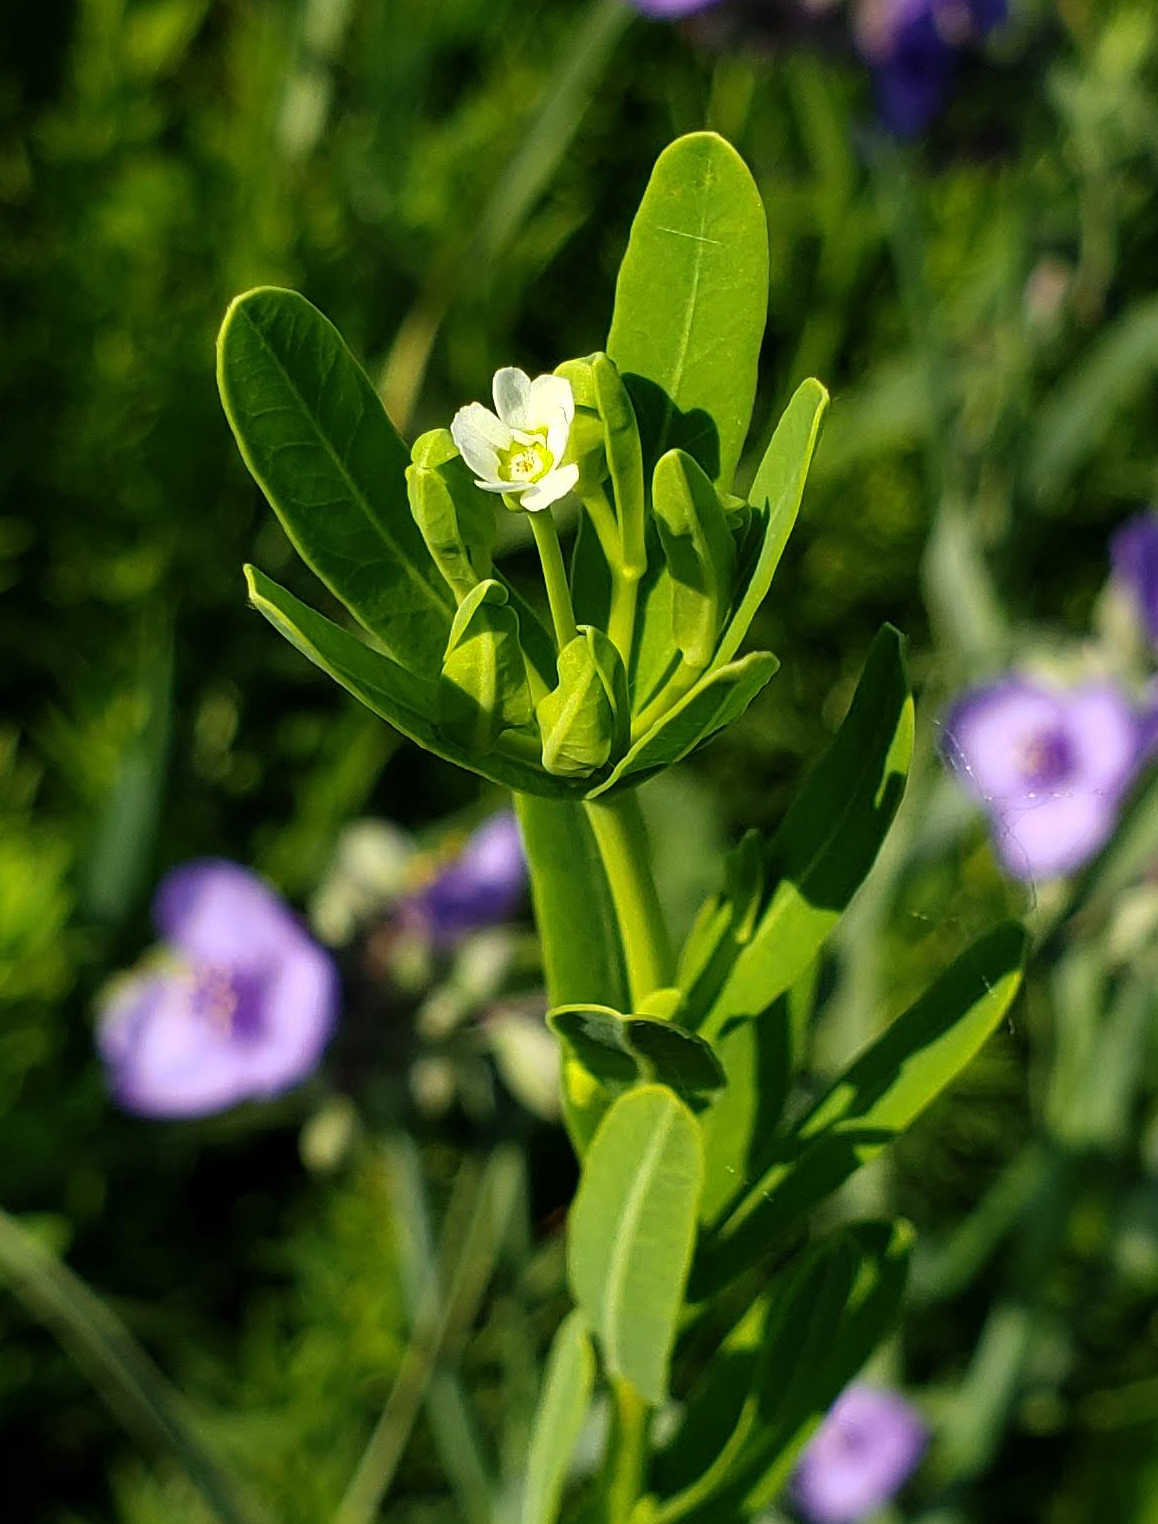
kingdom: Plantae
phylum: Tracheophyta
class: Magnoliopsida
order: Malpighiales
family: Euphorbiaceae
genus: Euphorbia
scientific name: Euphorbia corollata
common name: Flowering spurge
